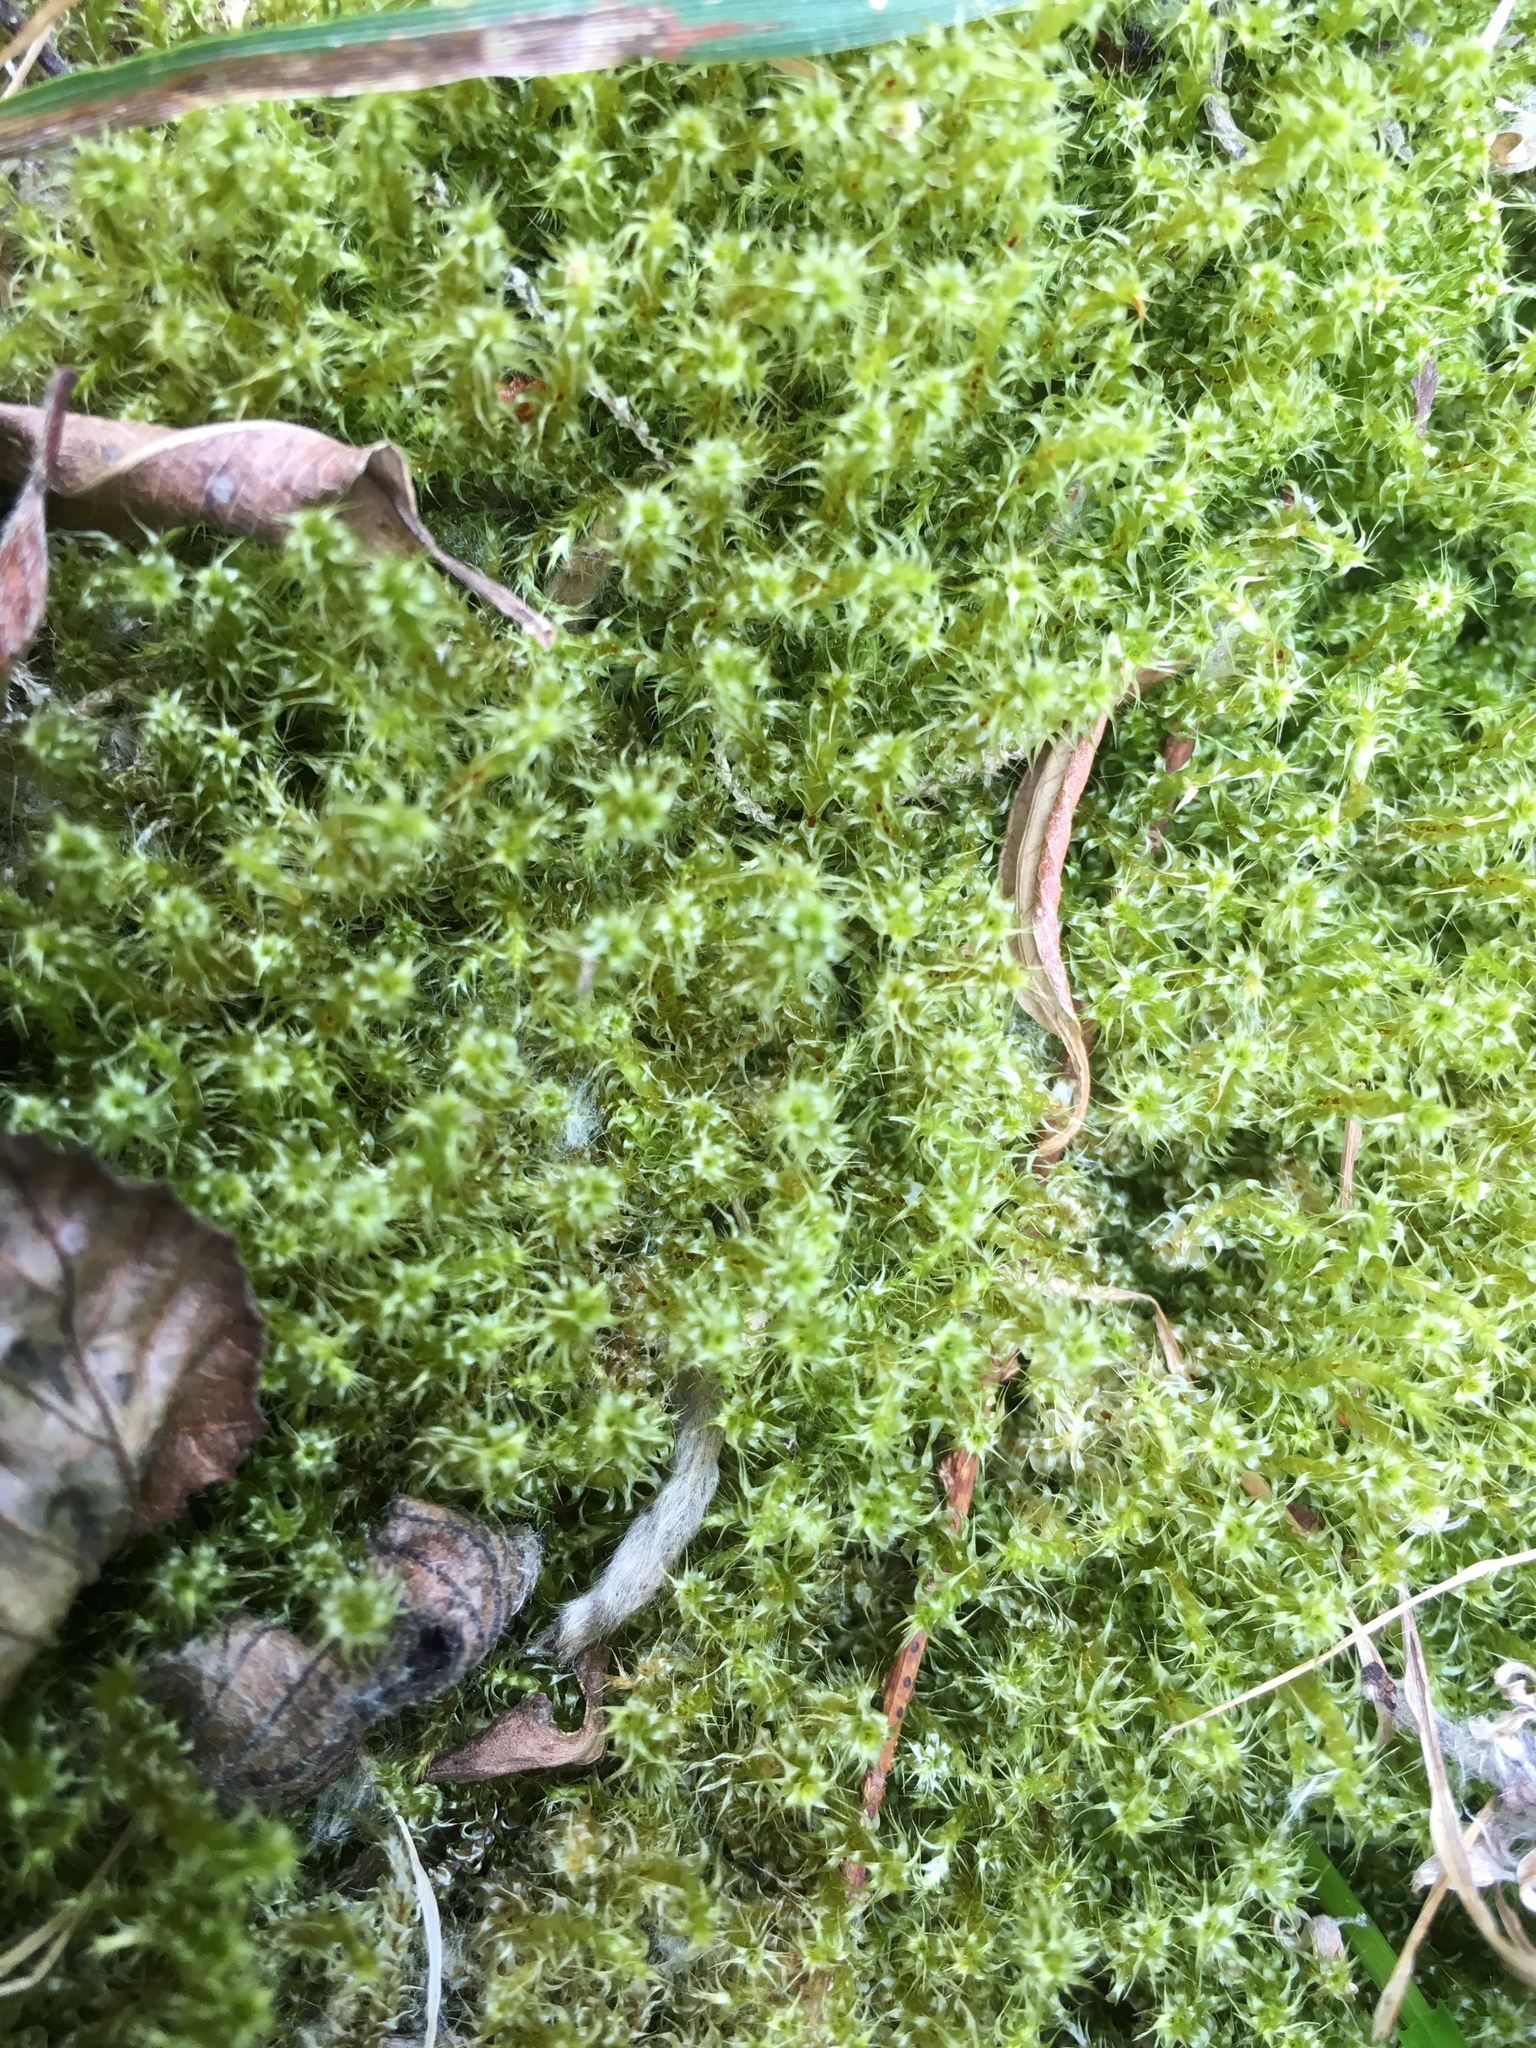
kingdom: Plantae
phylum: Bryophyta
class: Bryopsida
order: Hypnales
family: Hylocomiaceae
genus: Rhytidiadelphus
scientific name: Rhytidiadelphus squarrosus
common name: Springy turf-moss
